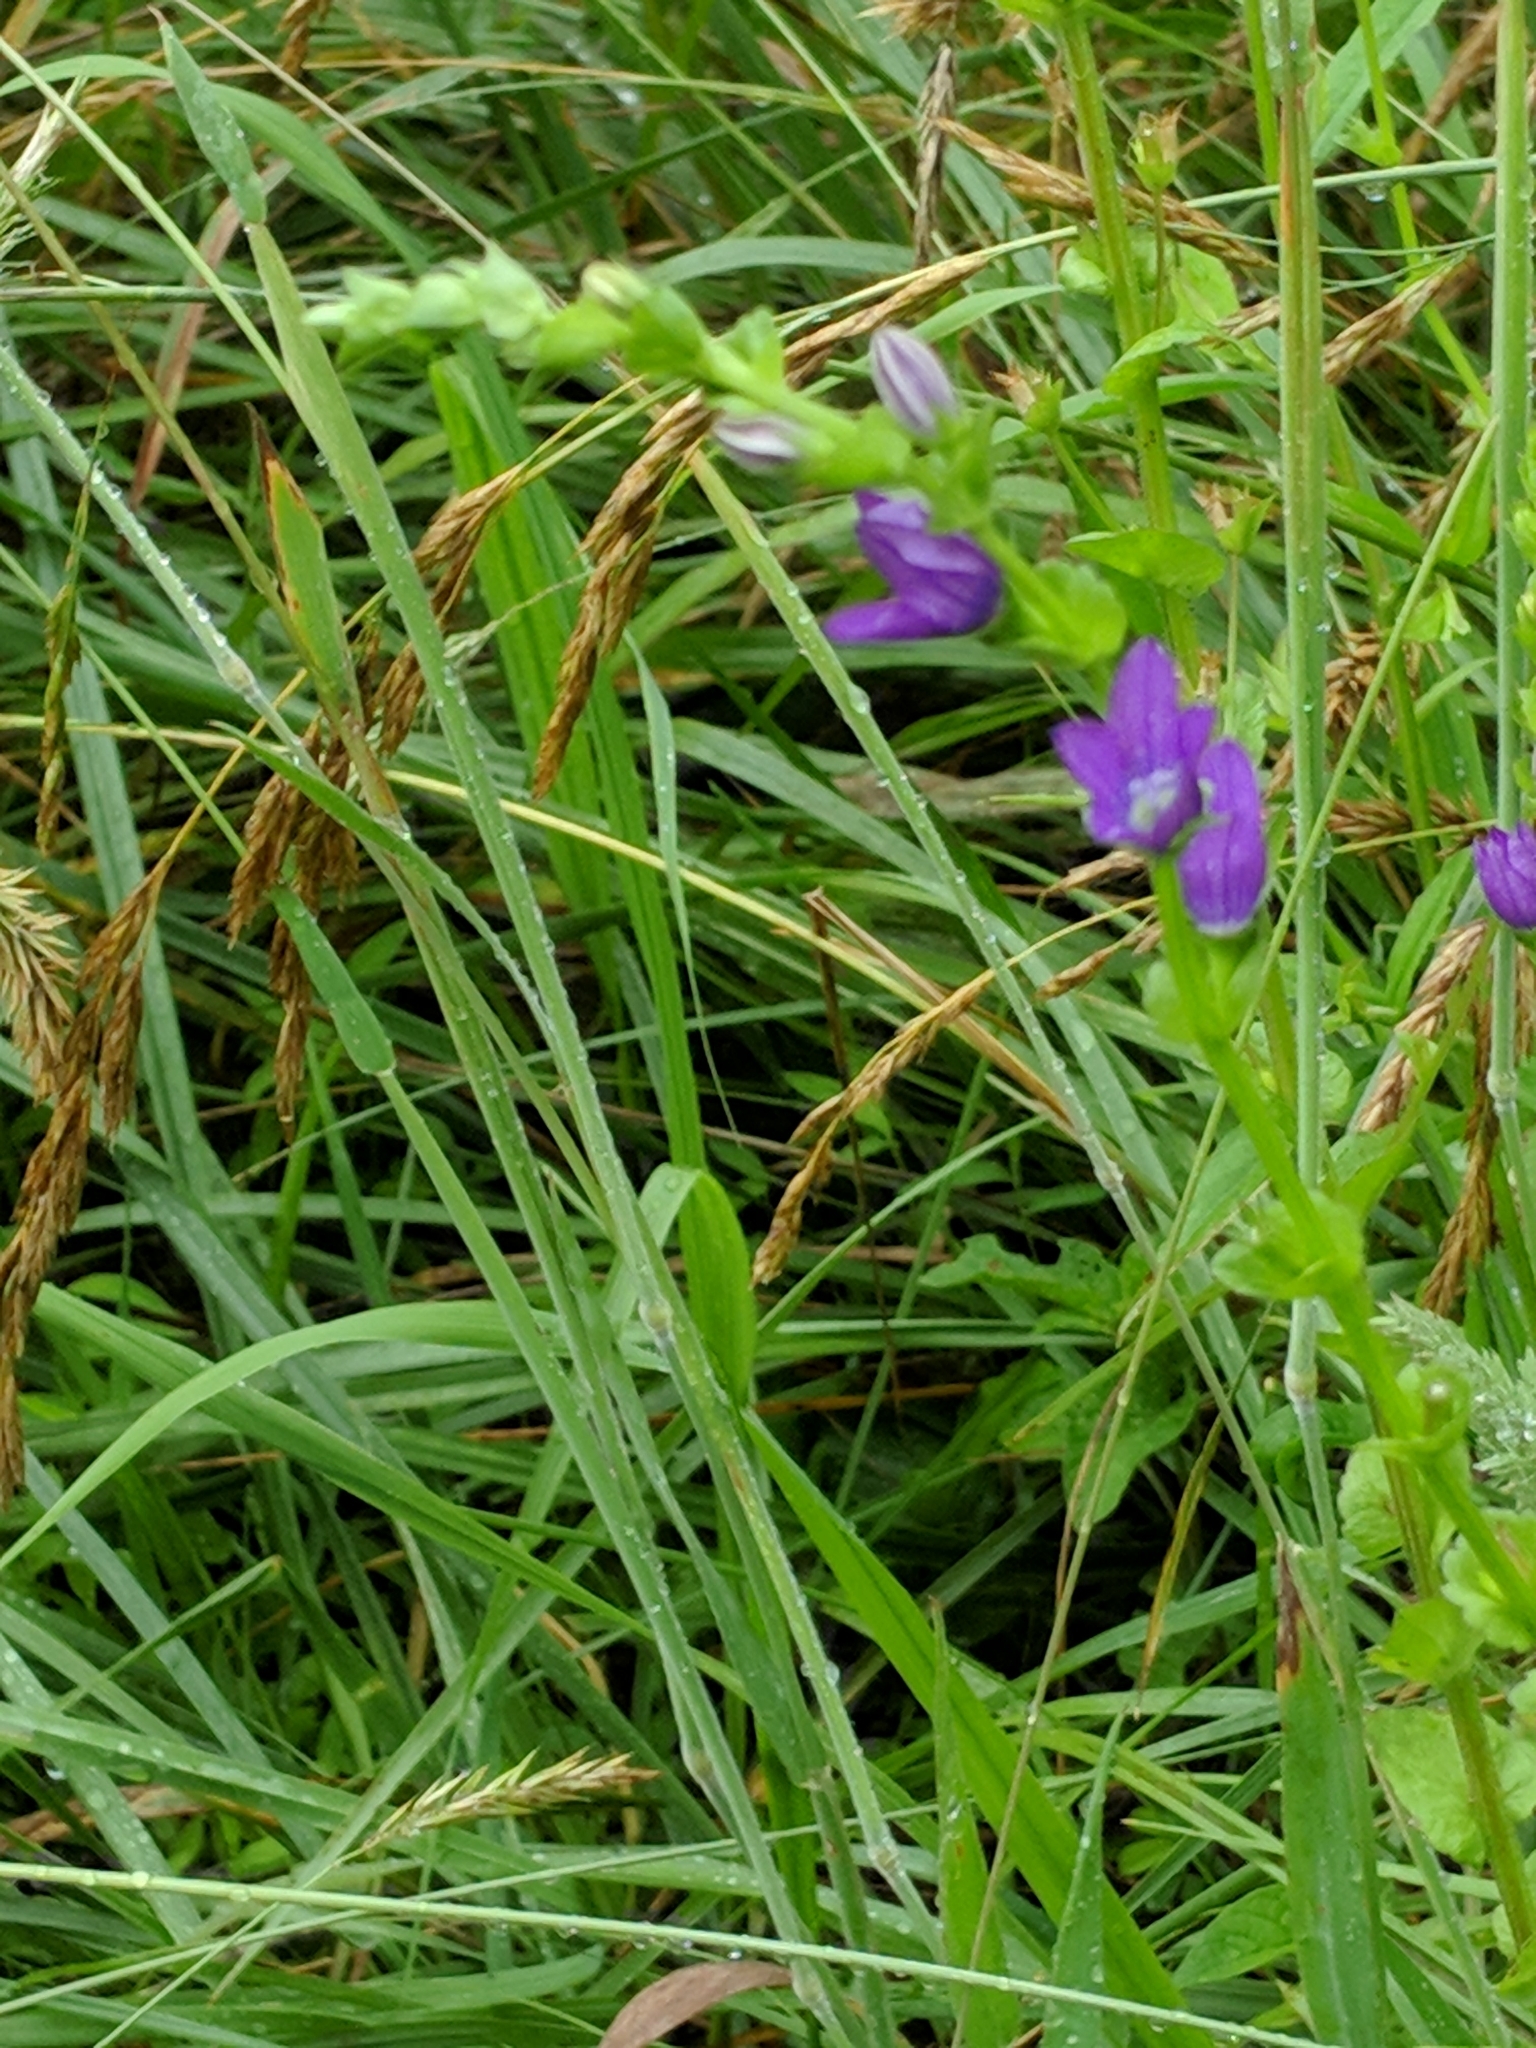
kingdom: Plantae
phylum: Tracheophyta
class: Magnoliopsida
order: Asterales
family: Campanulaceae
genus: Triodanis
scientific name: Triodanis perfoliata
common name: Clasping venus' looking-glass
